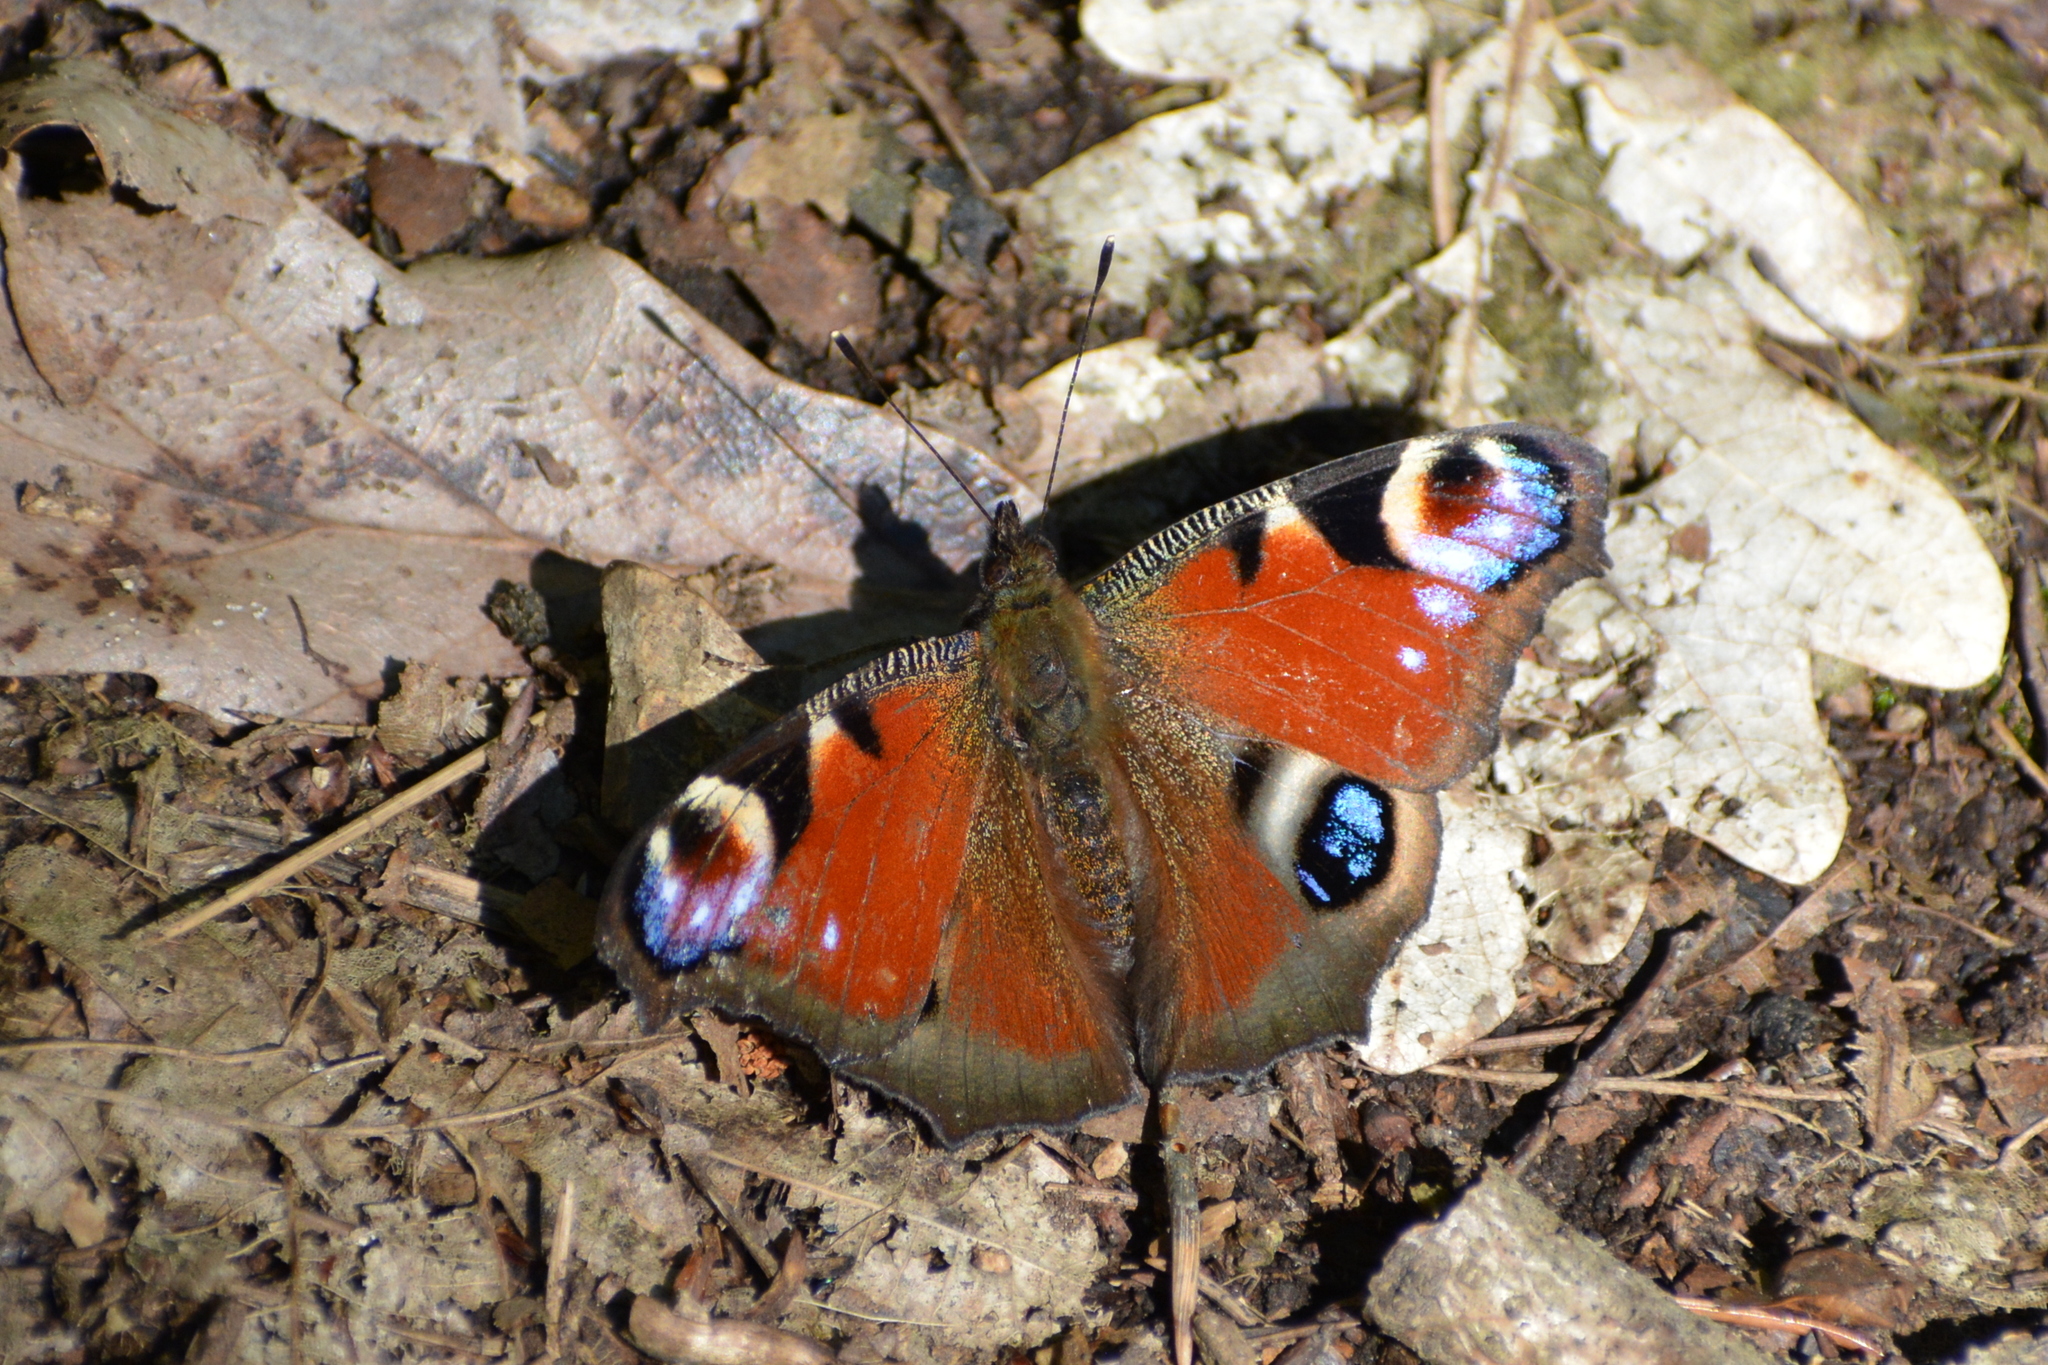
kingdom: Animalia
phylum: Arthropoda
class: Insecta
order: Lepidoptera
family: Nymphalidae
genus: Aglais
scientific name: Aglais io
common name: Peacock
